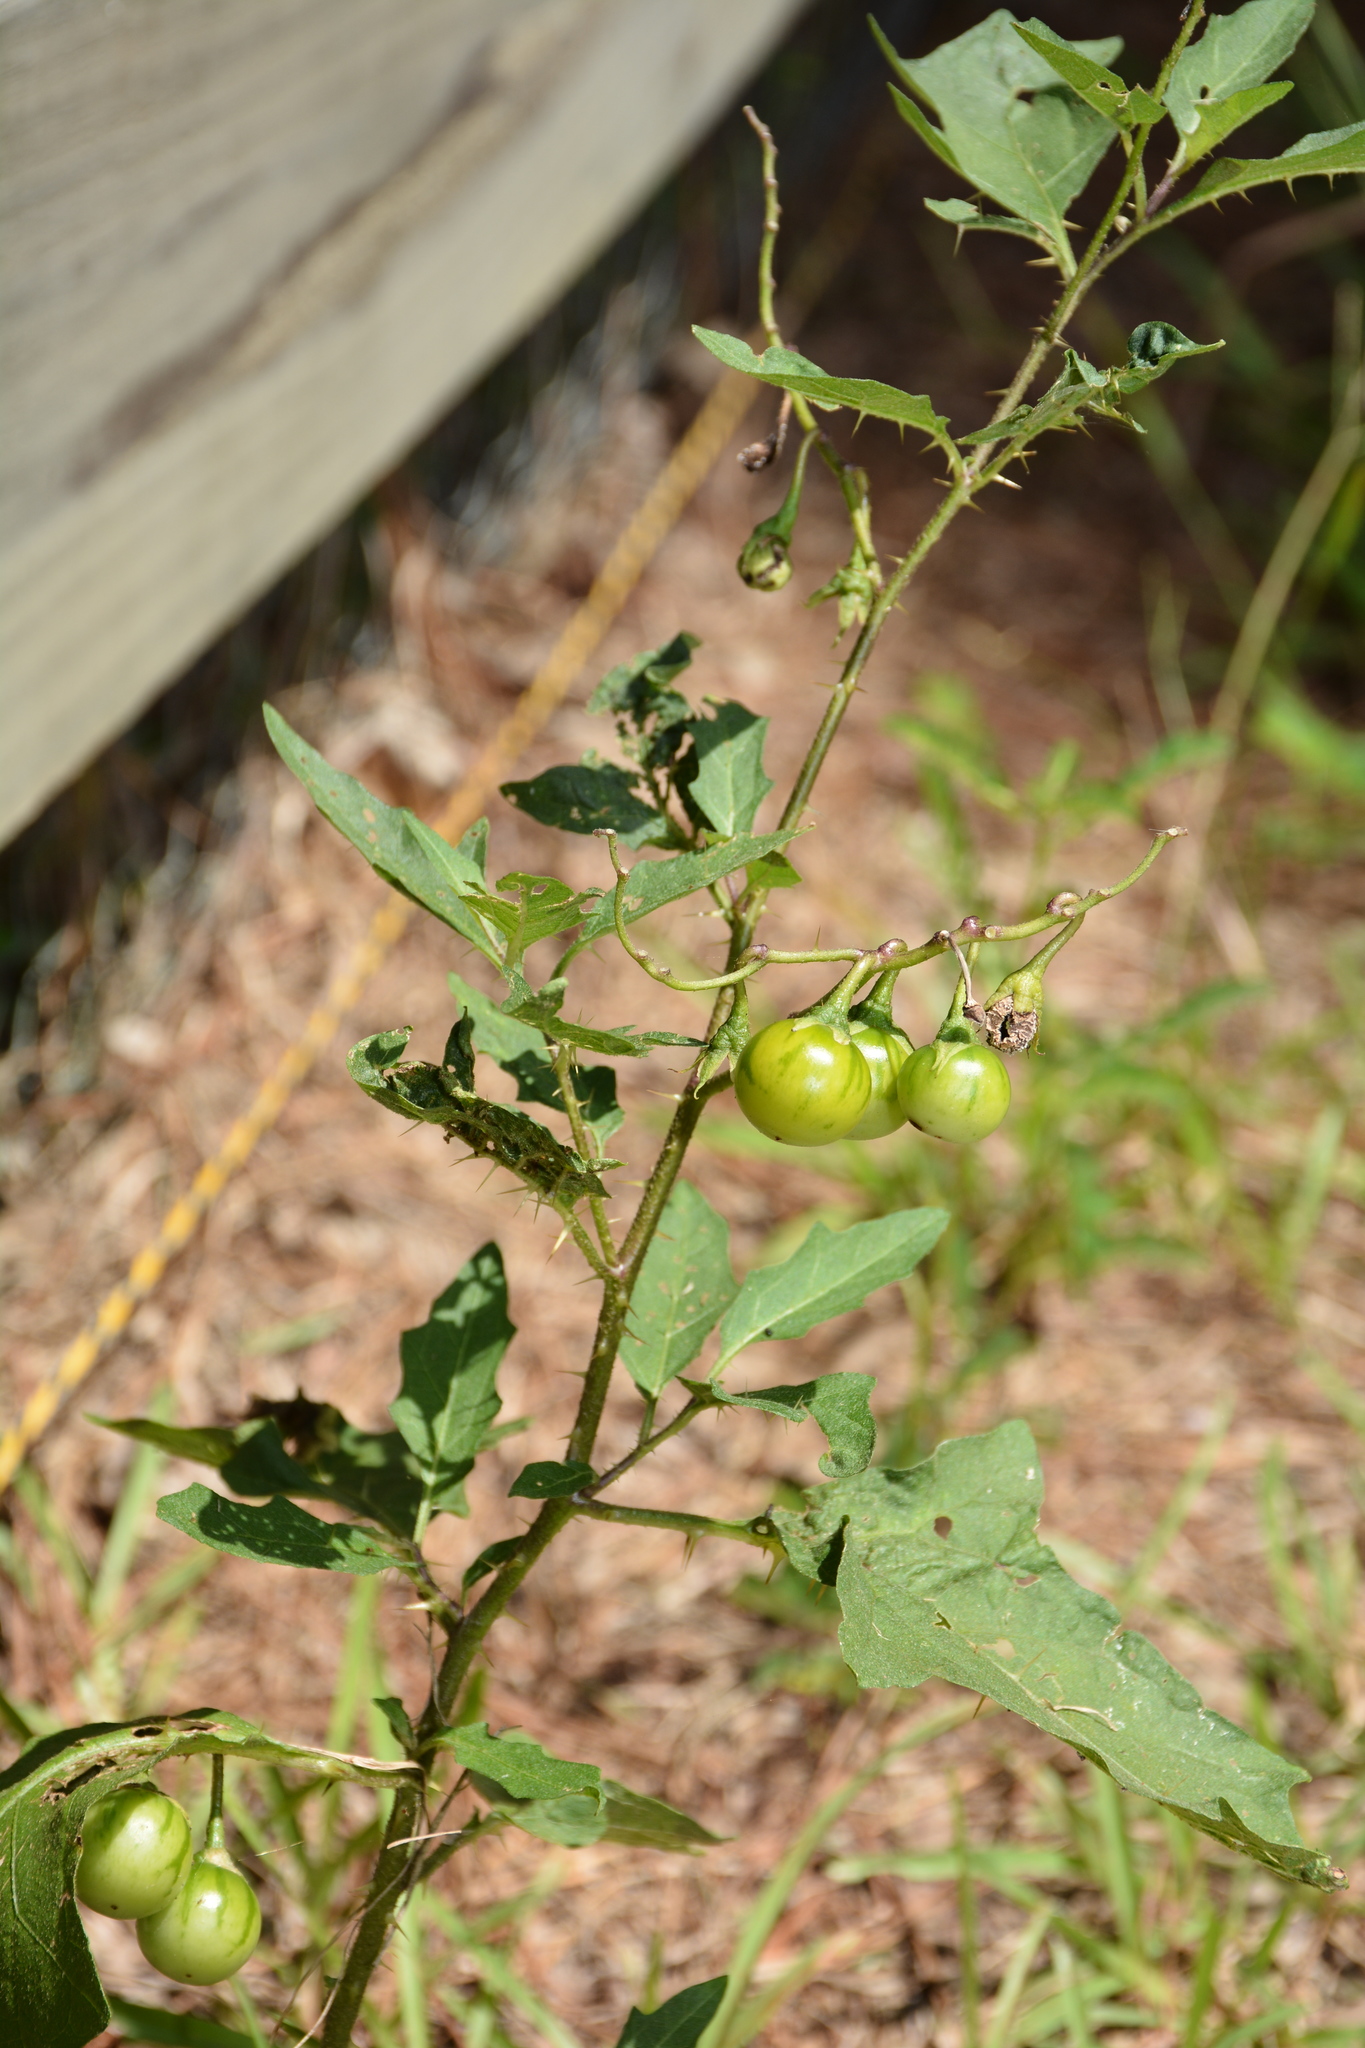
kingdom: Plantae
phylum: Tracheophyta
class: Magnoliopsida
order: Solanales
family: Solanaceae
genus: Solanum
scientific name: Solanum carolinense
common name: Horse-nettle
